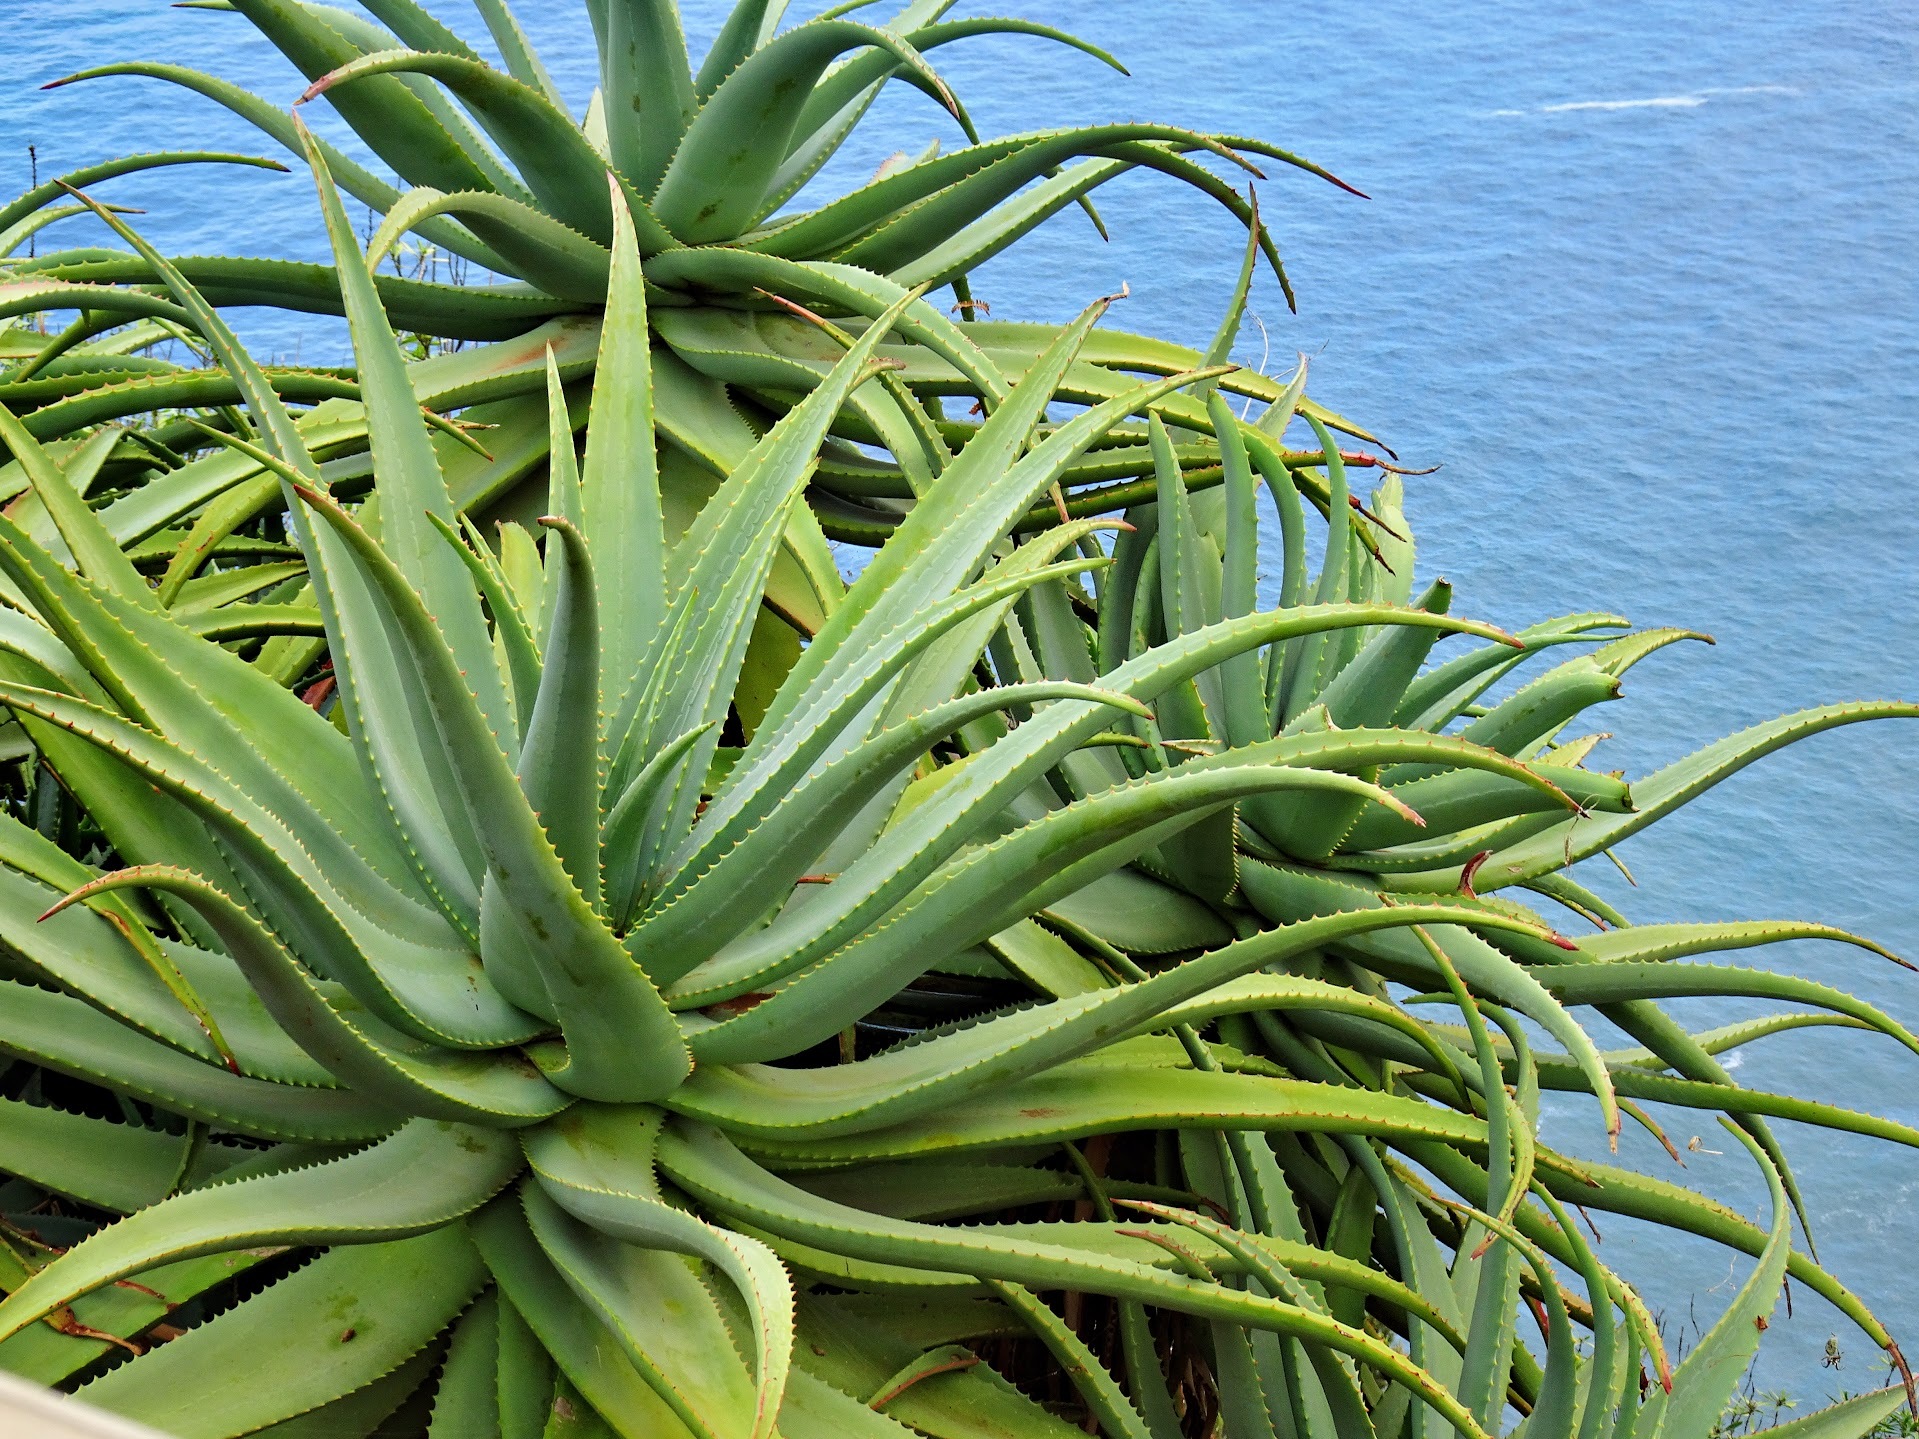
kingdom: Plantae
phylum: Tracheophyta
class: Liliopsida
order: Asparagales
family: Asphodelaceae
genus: Aloe
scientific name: Aloe arborescens
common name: Candelabra aloe
